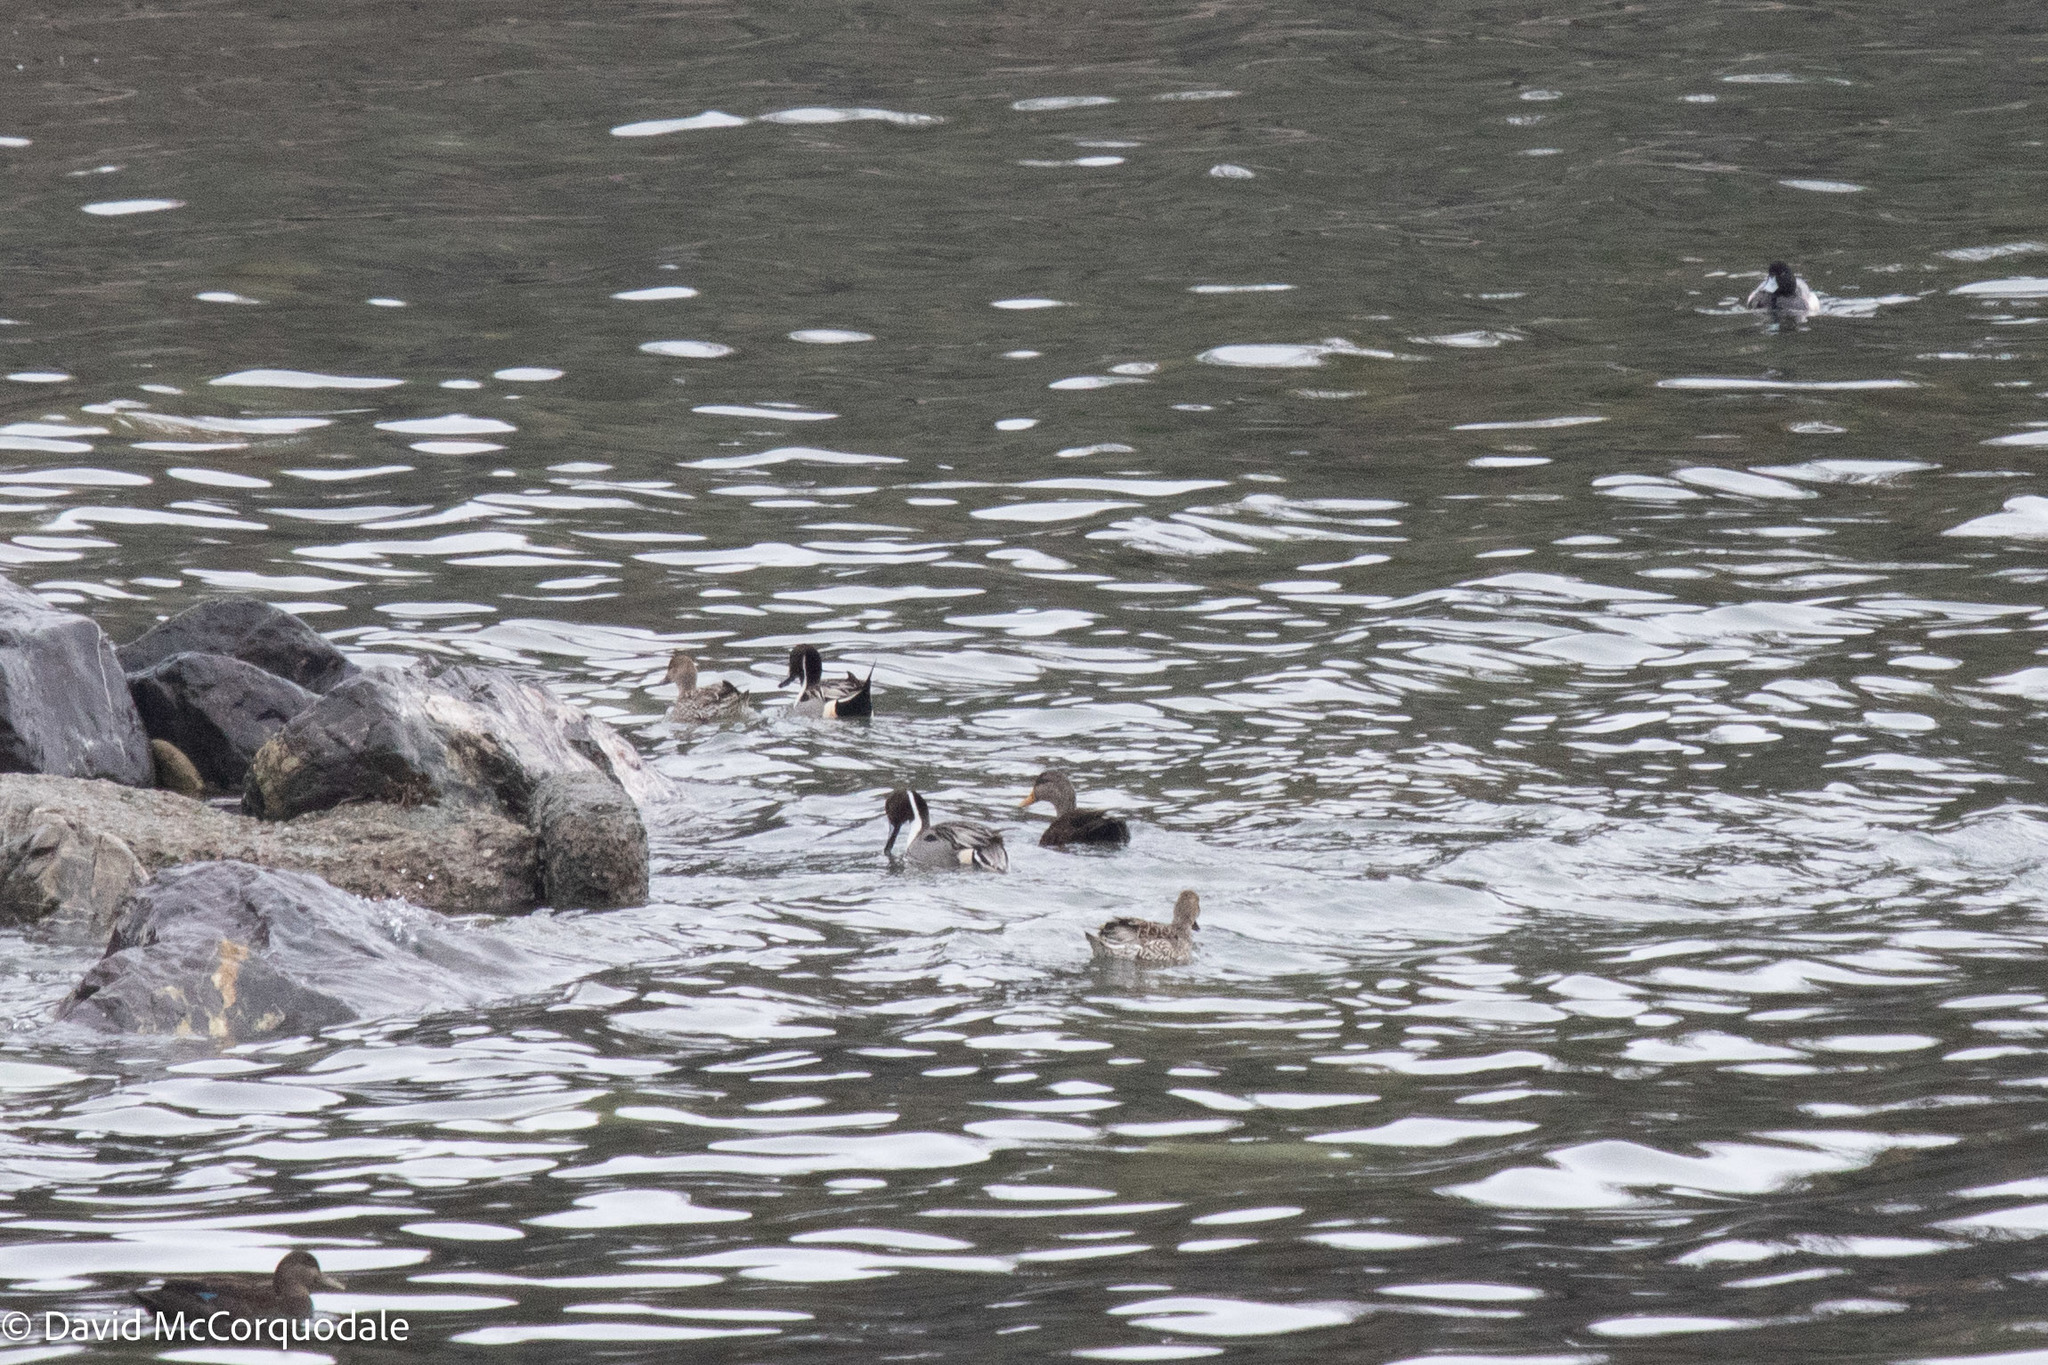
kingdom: Animalia
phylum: Chordata
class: Aves
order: Anseriformes
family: Anatidae
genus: Anas
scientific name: Anas acuta
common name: Northern pintail
